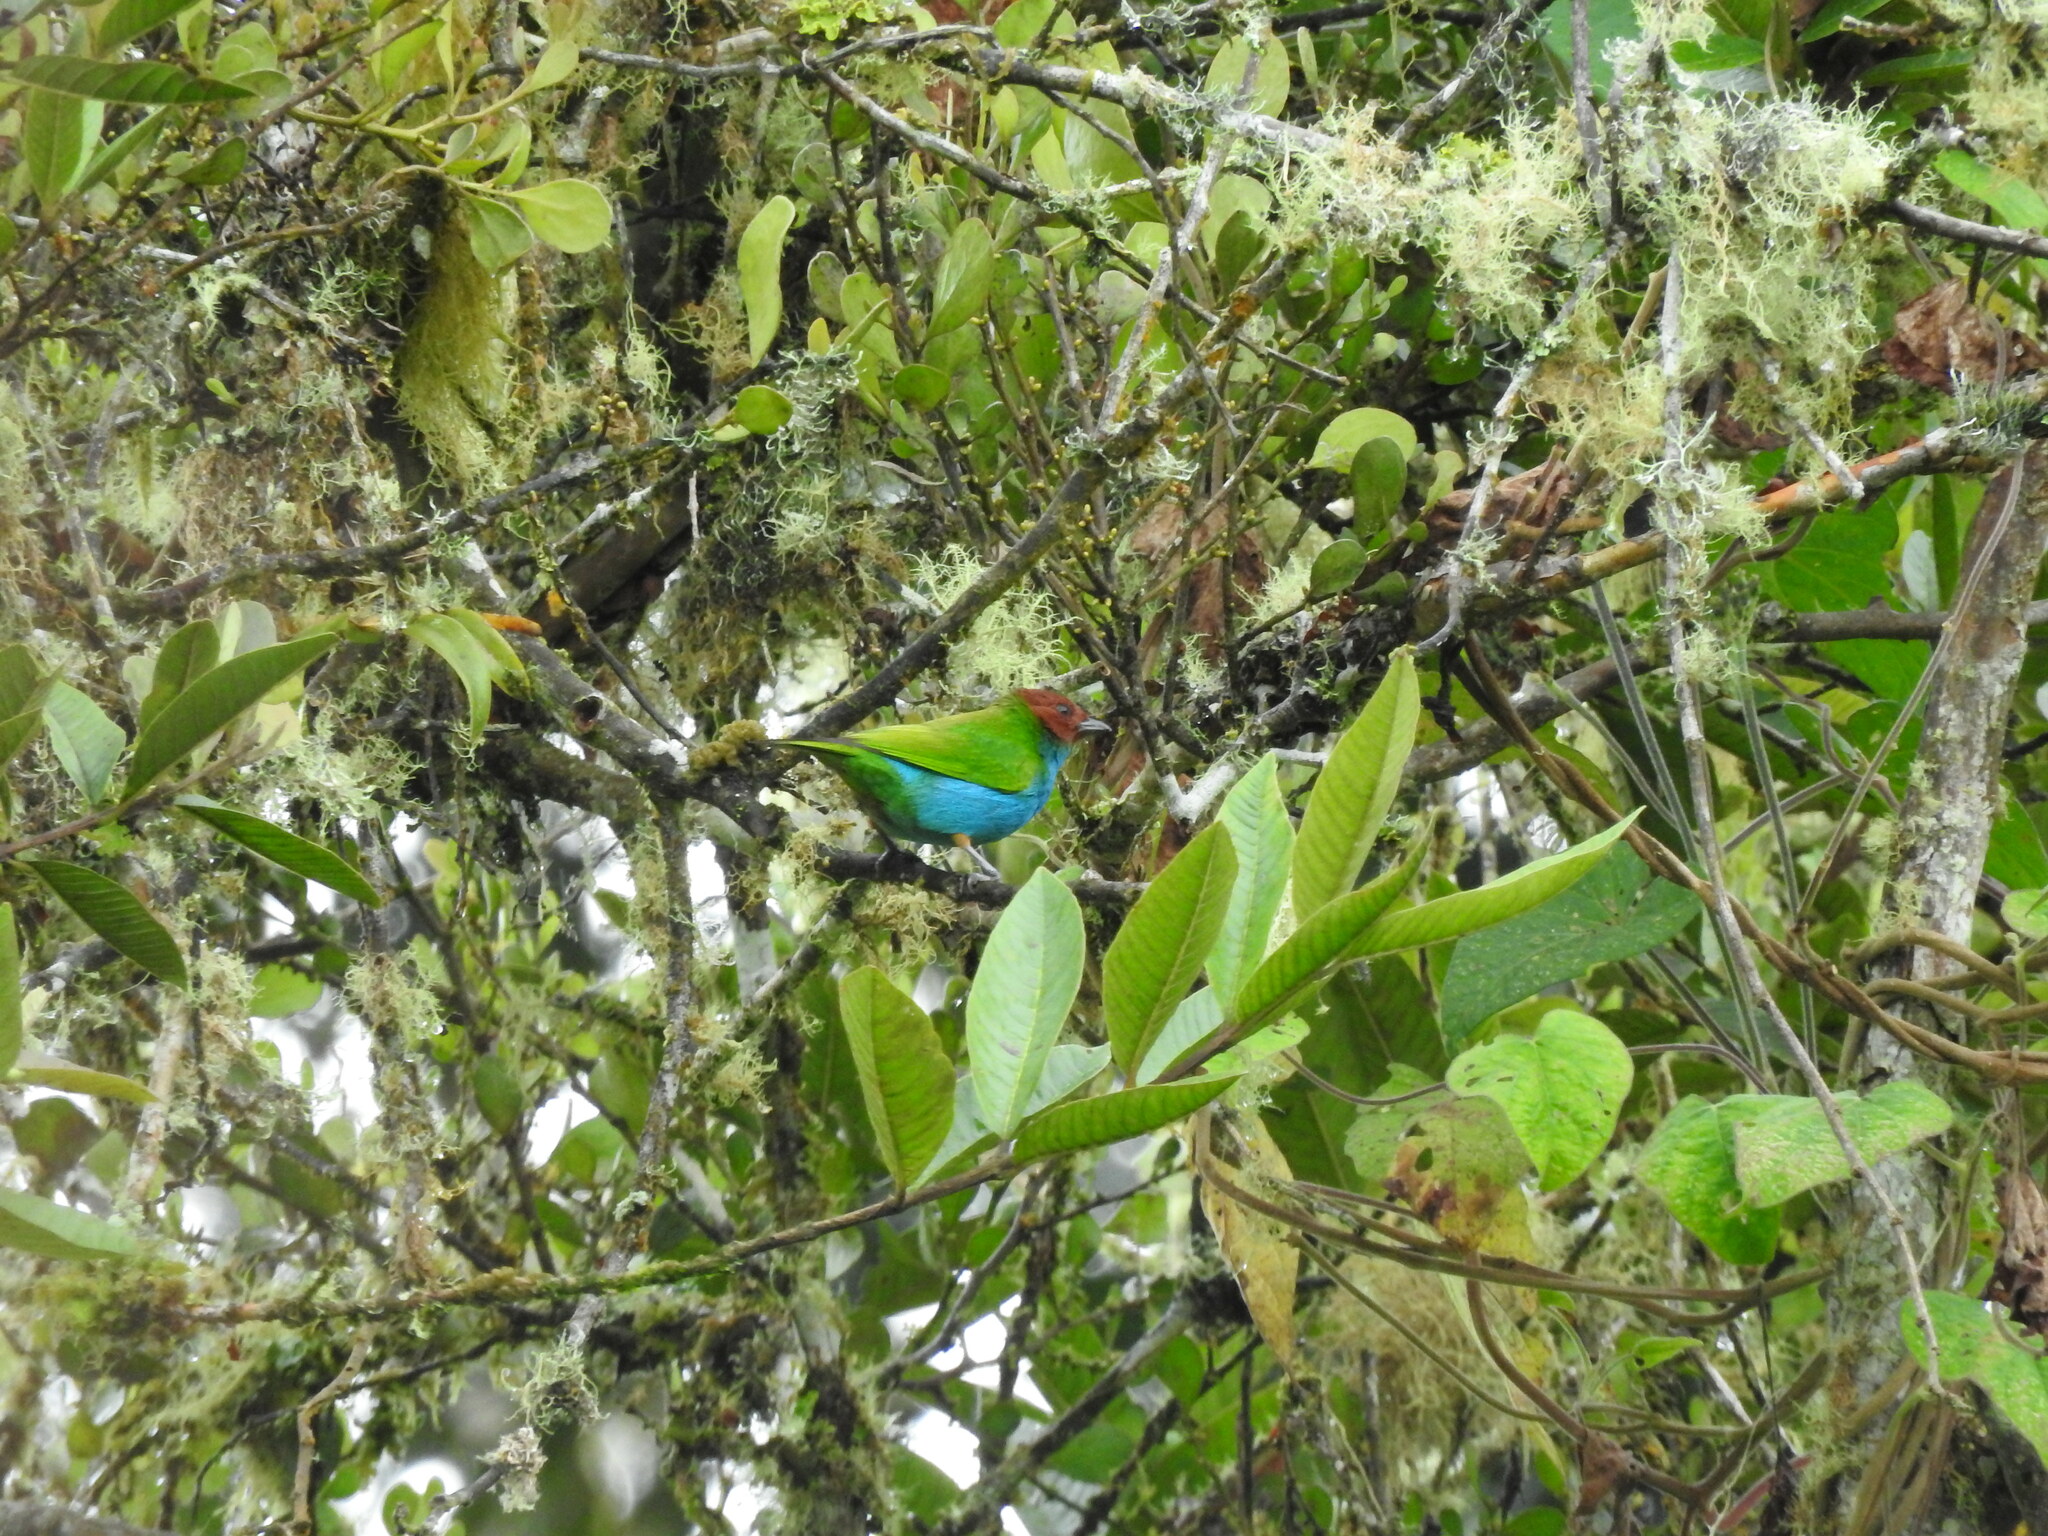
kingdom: Animalia
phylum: Chordata
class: Aves
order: Passeriformes
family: Thraupidae
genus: Tangara
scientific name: Tangara gyrola
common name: Bay-headed tanager
